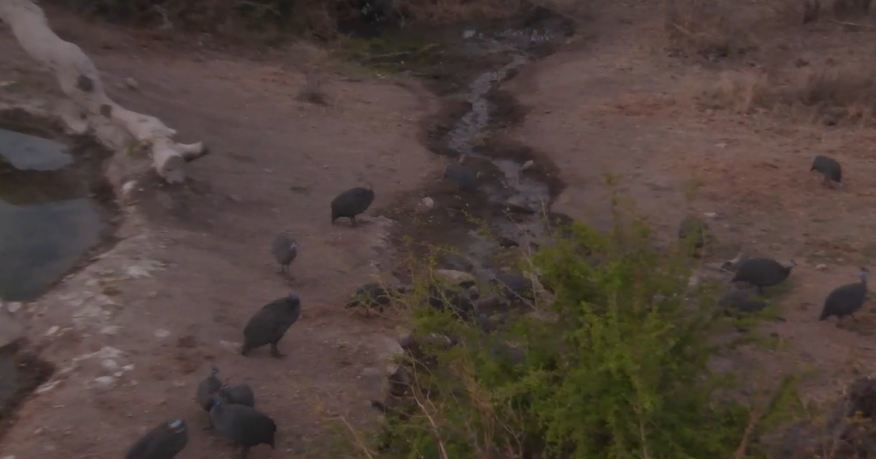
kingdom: Animalia
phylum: Chordata
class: Aves
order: Galliformes
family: Numididae
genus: Numida
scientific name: Numida meleagris
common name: Helmeted guineafowl
